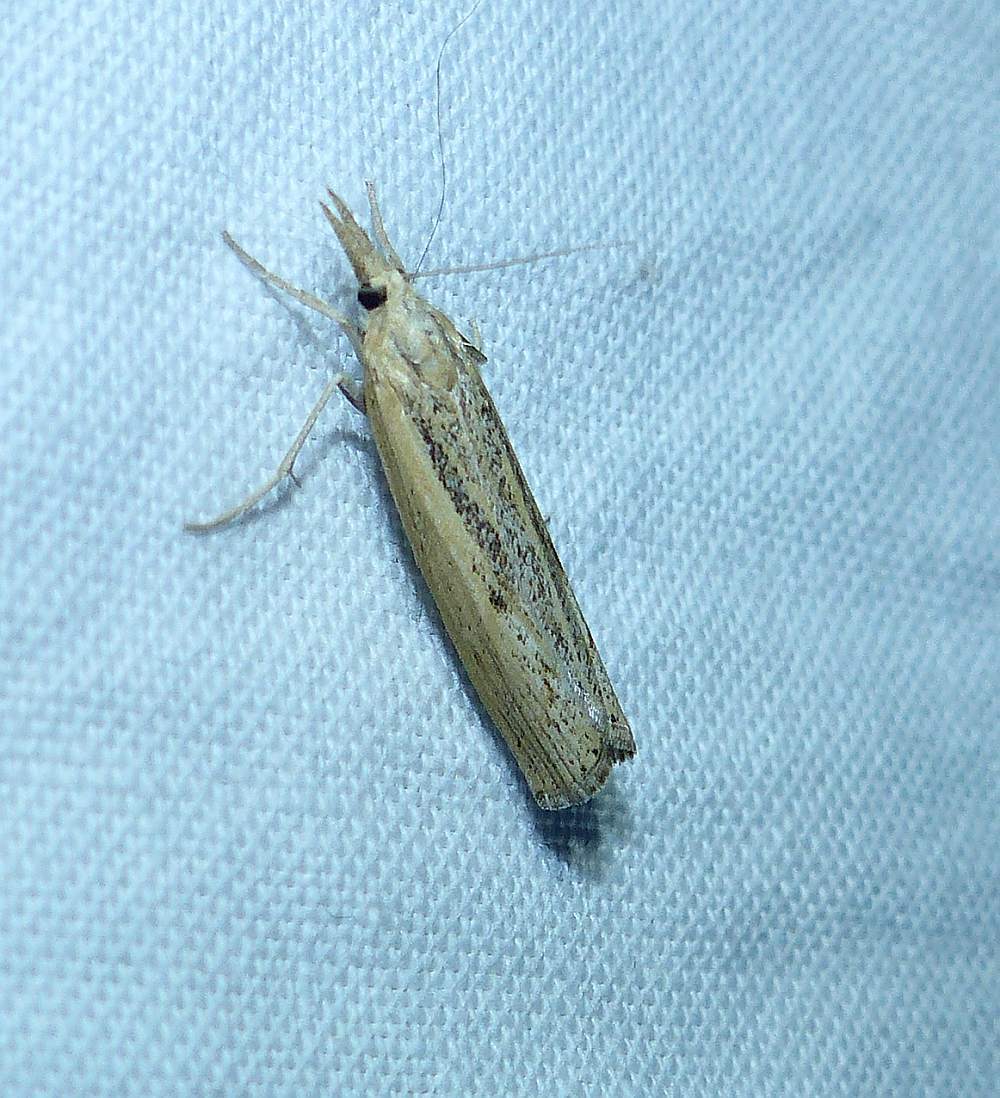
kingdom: Animalia
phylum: Arthropoda
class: Insecta
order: Lepidoptera
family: Crambidae
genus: Pediasia
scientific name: Pediasia trisecta
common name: Sod webworm moth
